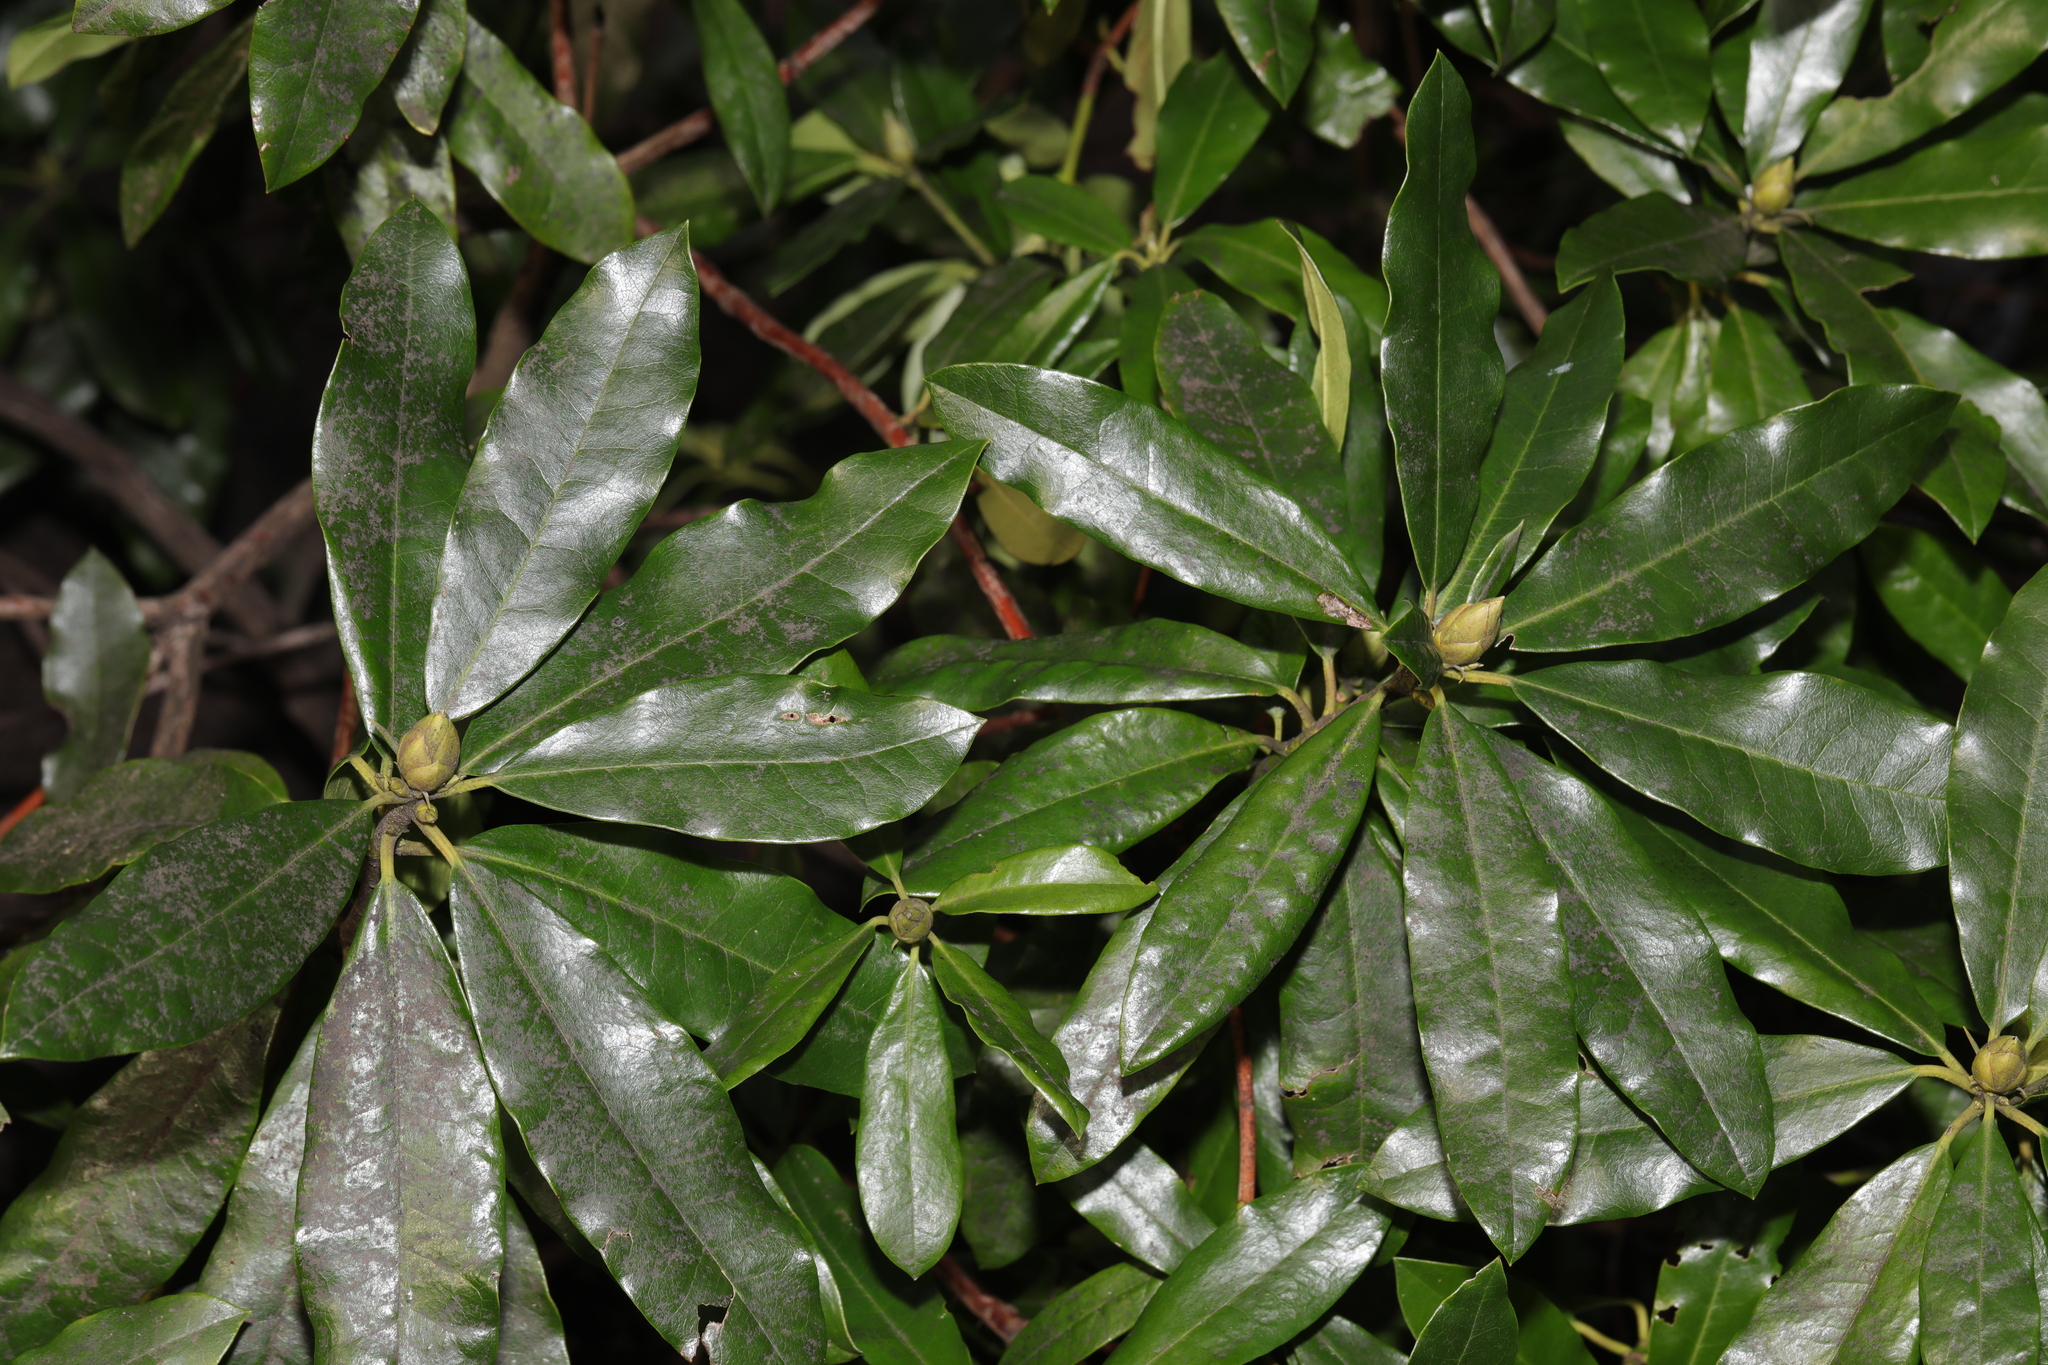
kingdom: Plantae
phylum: Tracheophyta
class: Magnoliopsida
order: Ericales
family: Ericaceae
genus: Rhododendron
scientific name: Rhododendron ponticum
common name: Rhododendron
